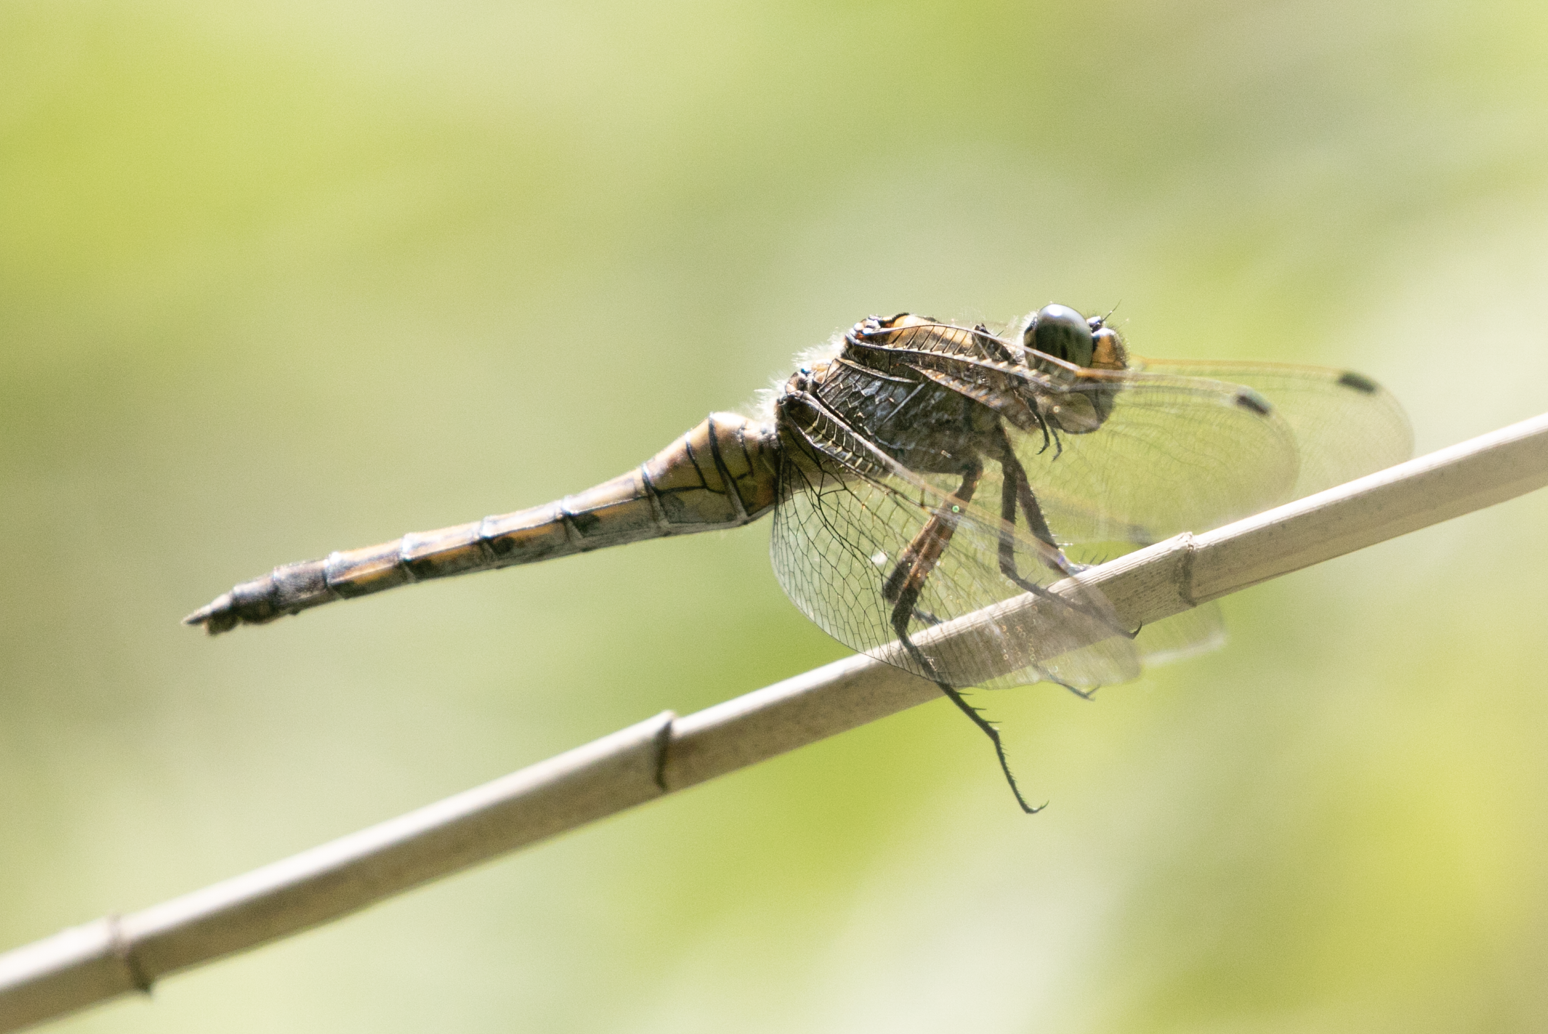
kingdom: Animalia
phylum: Arthropoda
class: Insecta
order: Odonata
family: Libellulidae
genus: Orthetrum
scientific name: Orthetrum cancellatum
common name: Black-tailed skimmer
